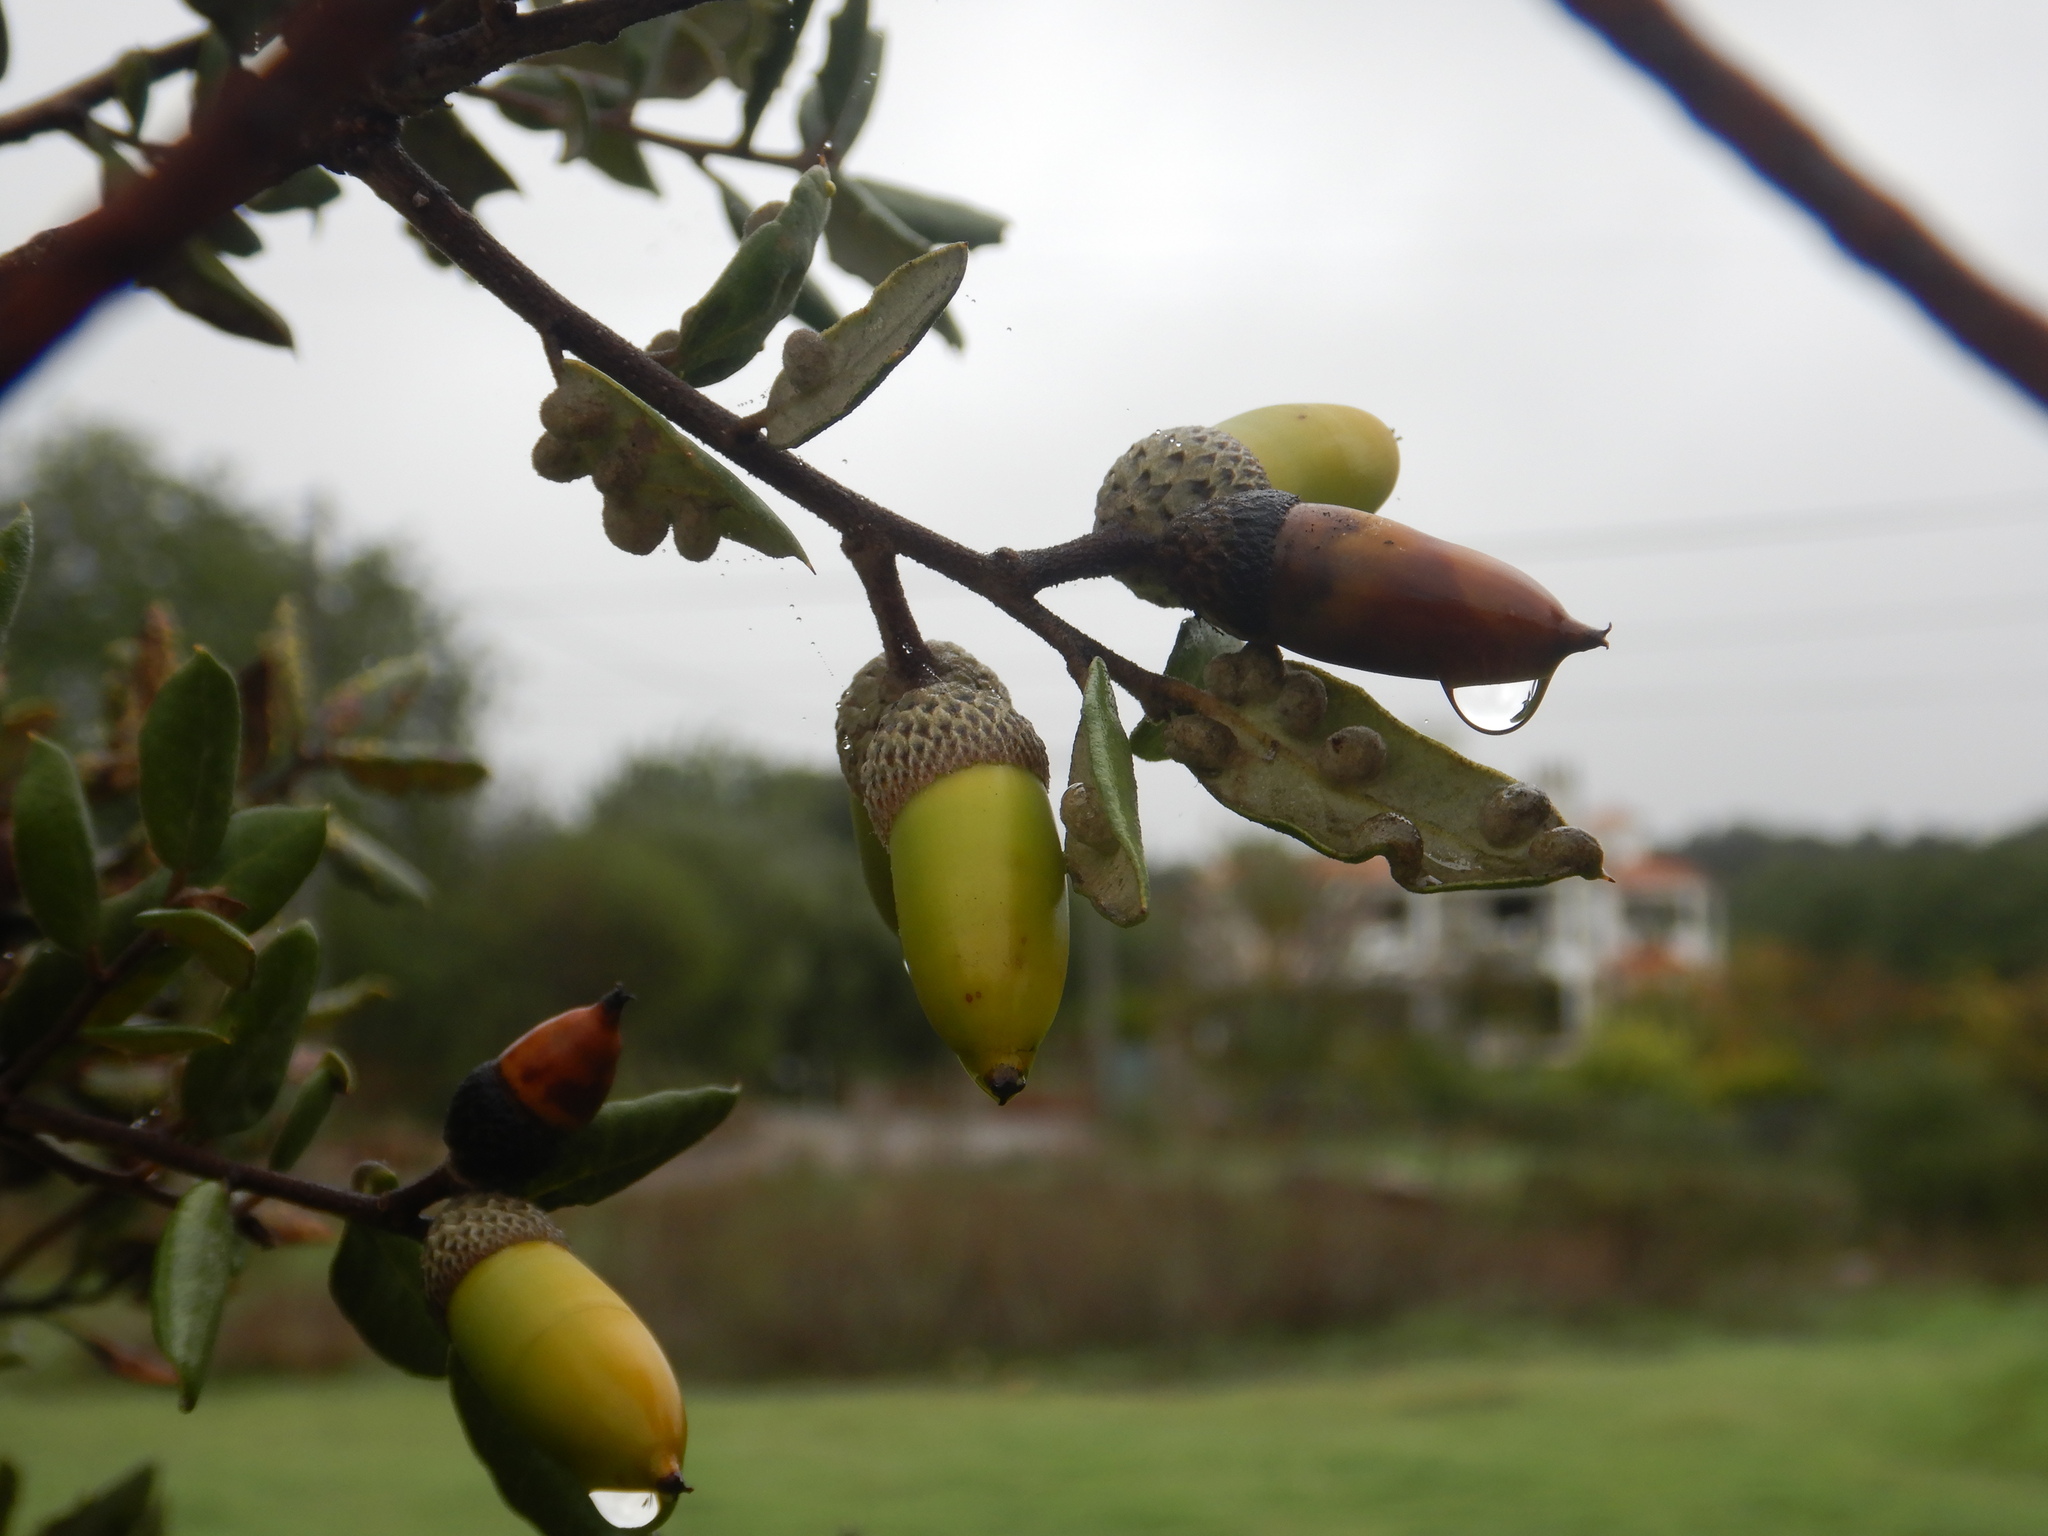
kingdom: Animalia
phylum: Arthropoda
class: Insecta
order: Diptera
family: Cecidomyiidae
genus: Dryomyia
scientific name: Dryomyia lichtensteinii
